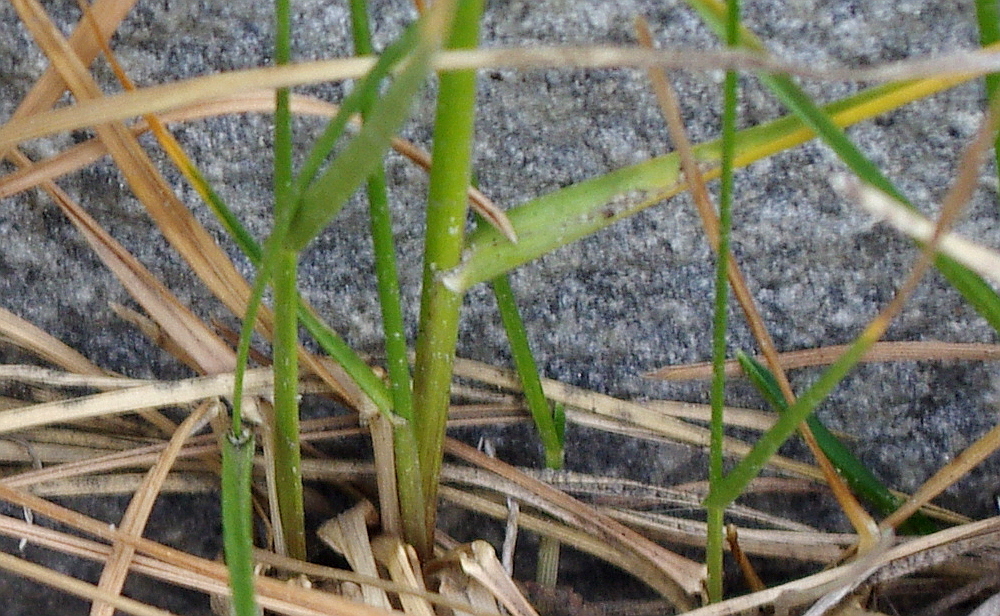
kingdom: Plantae
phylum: Tracheophyta
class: Liliopsida
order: Poales
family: Poaceae
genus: Poa
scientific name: Poa angustifolia
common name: Narrow-leaved meadow-grass
